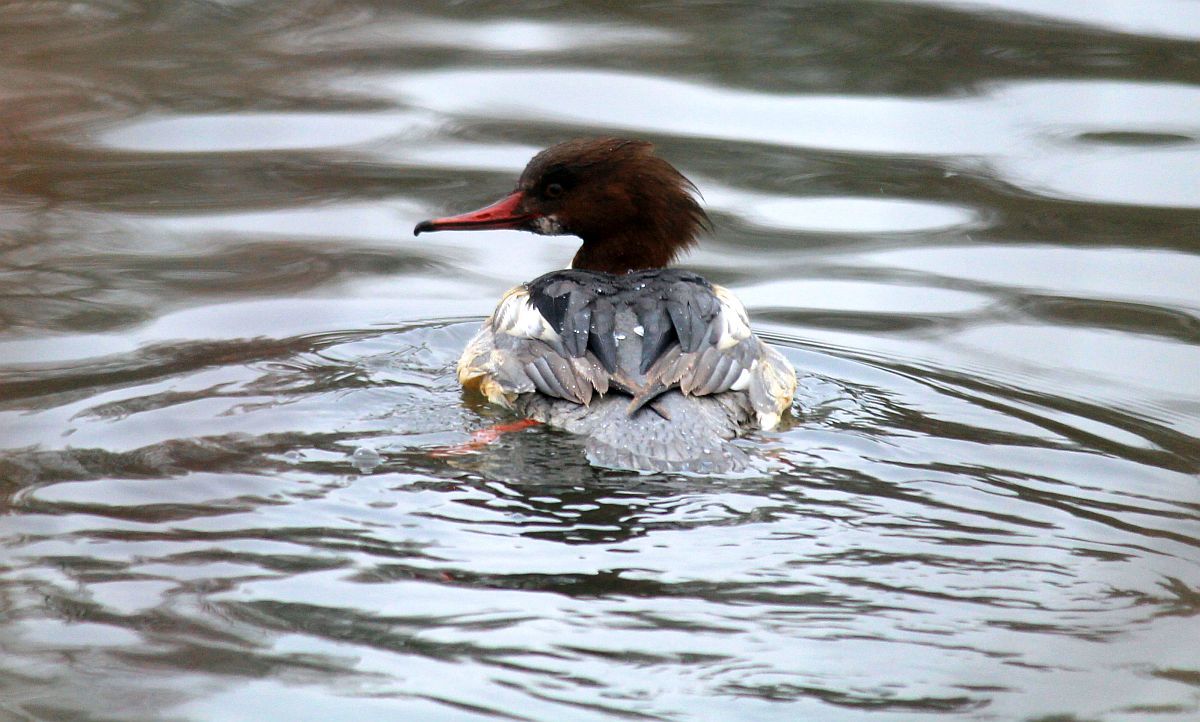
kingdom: Animalia
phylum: Chordata
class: Aves
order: Anseriformes
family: Anatidae
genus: Mergus
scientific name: Mergus merganser
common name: Common merganser
